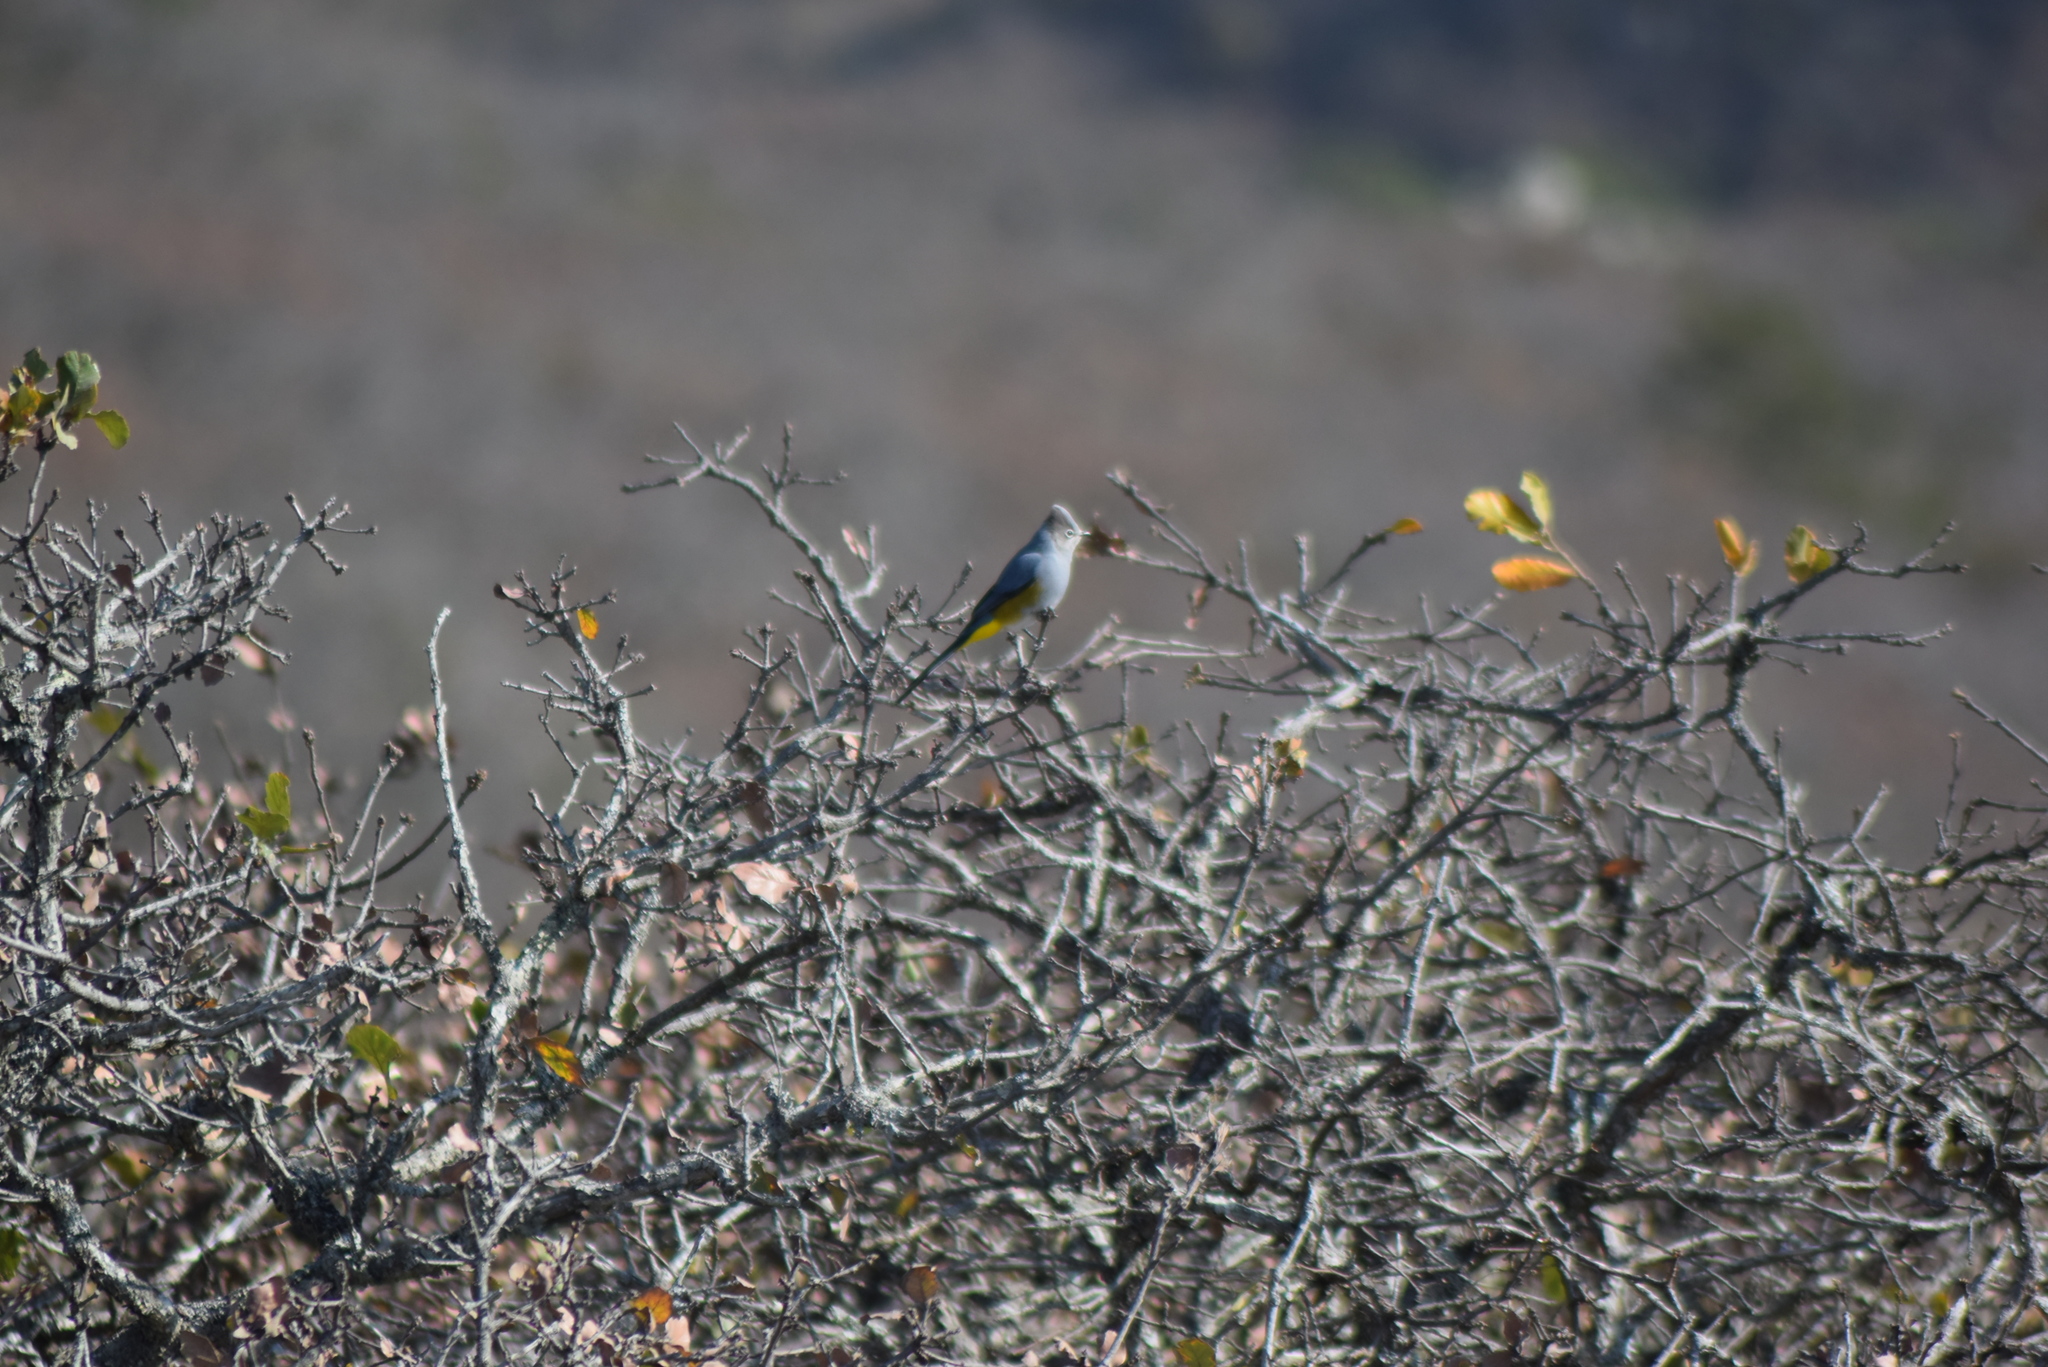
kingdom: Animalia
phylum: Chordata
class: Aves
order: Passeriformes
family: Ptilogonatidae
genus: Ptilogonys
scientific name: Ptilogonys cinereus
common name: Gray silky-flycatcher
